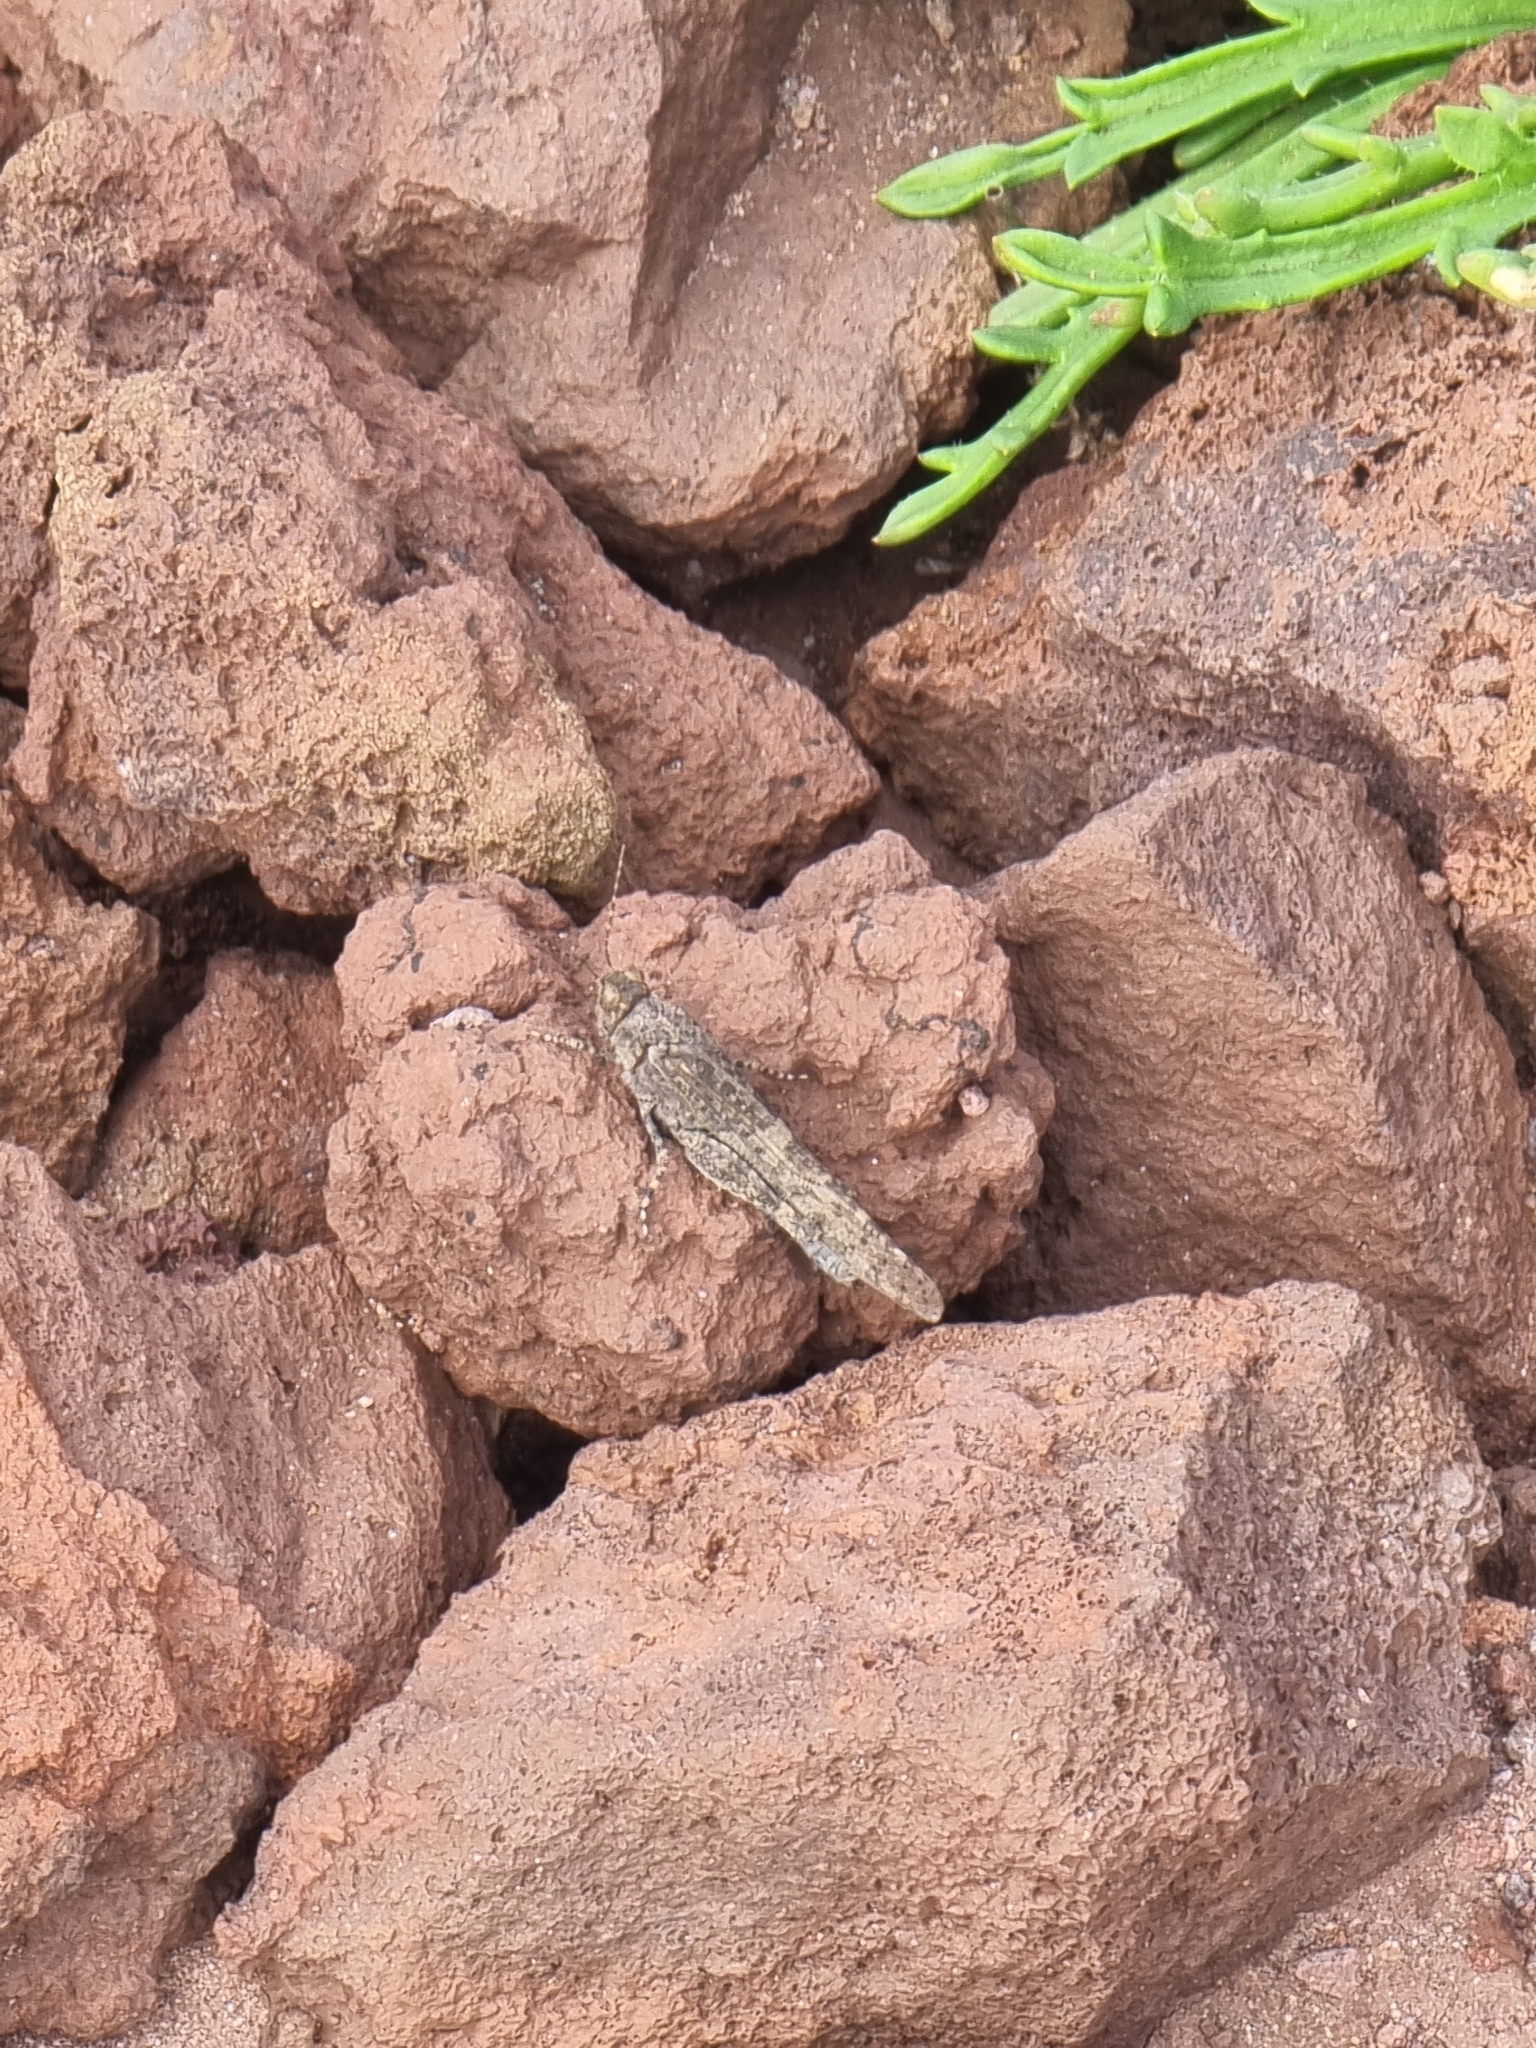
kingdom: Animalia
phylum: Arthropoda
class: Insecta
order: Orthoptera
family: Acrididae
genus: Sphingonotus
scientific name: Sphingonotus rubescens
